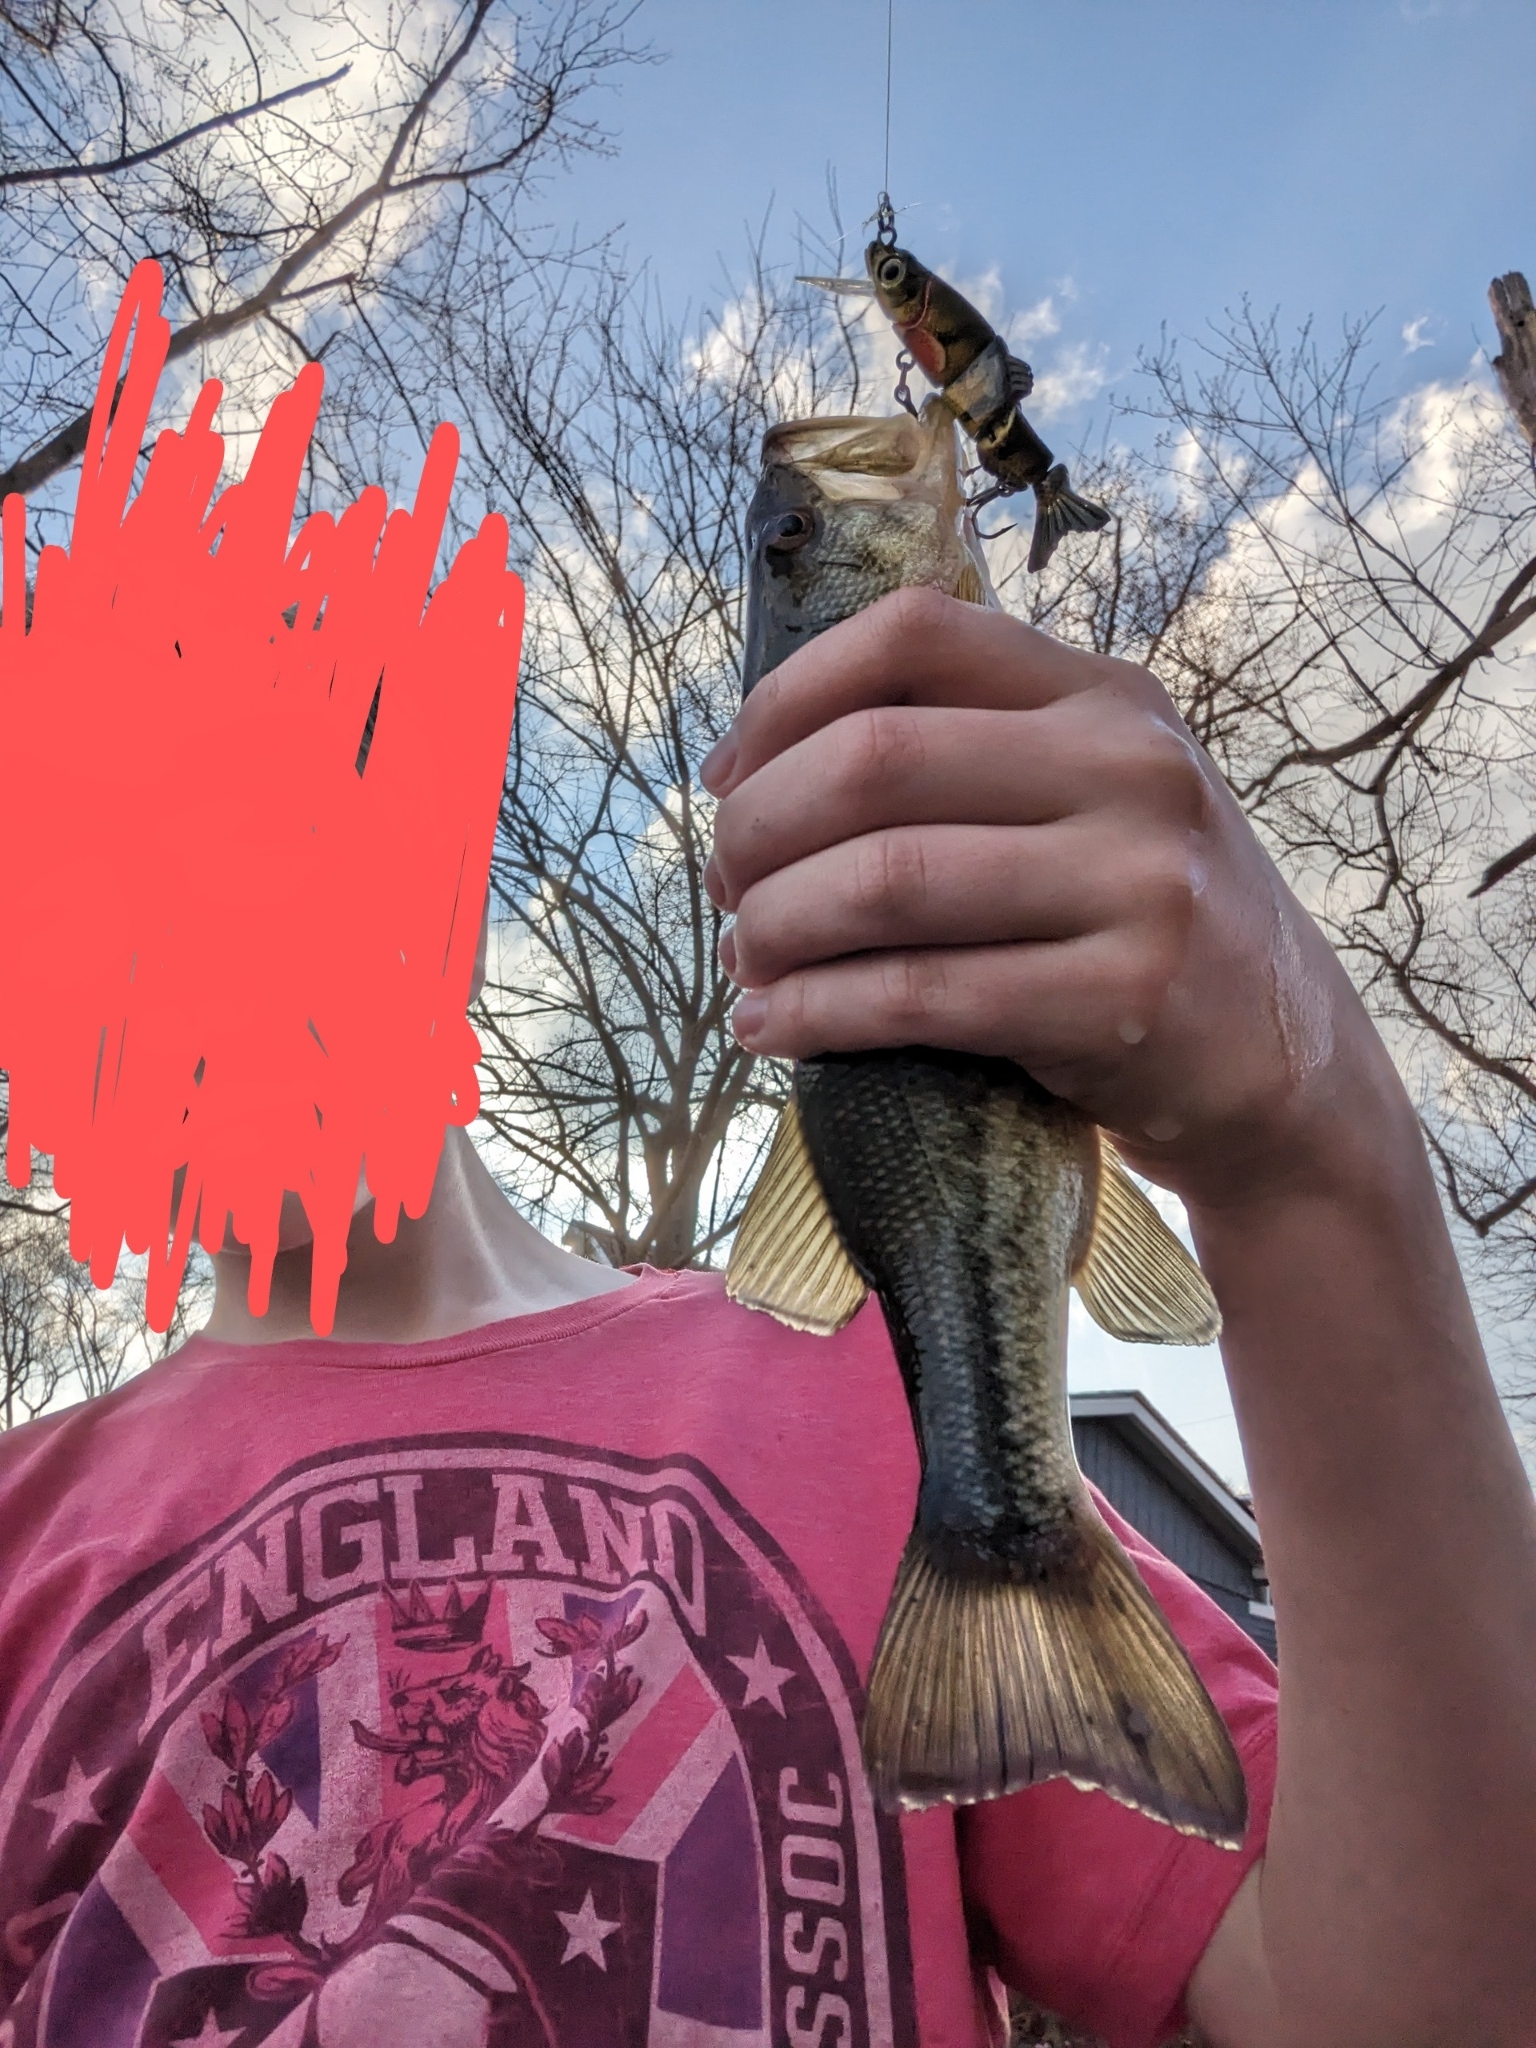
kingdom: Animalia
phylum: Chordata
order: Perciformes
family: Centrarchidae
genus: Micropterus
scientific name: Micropterus
